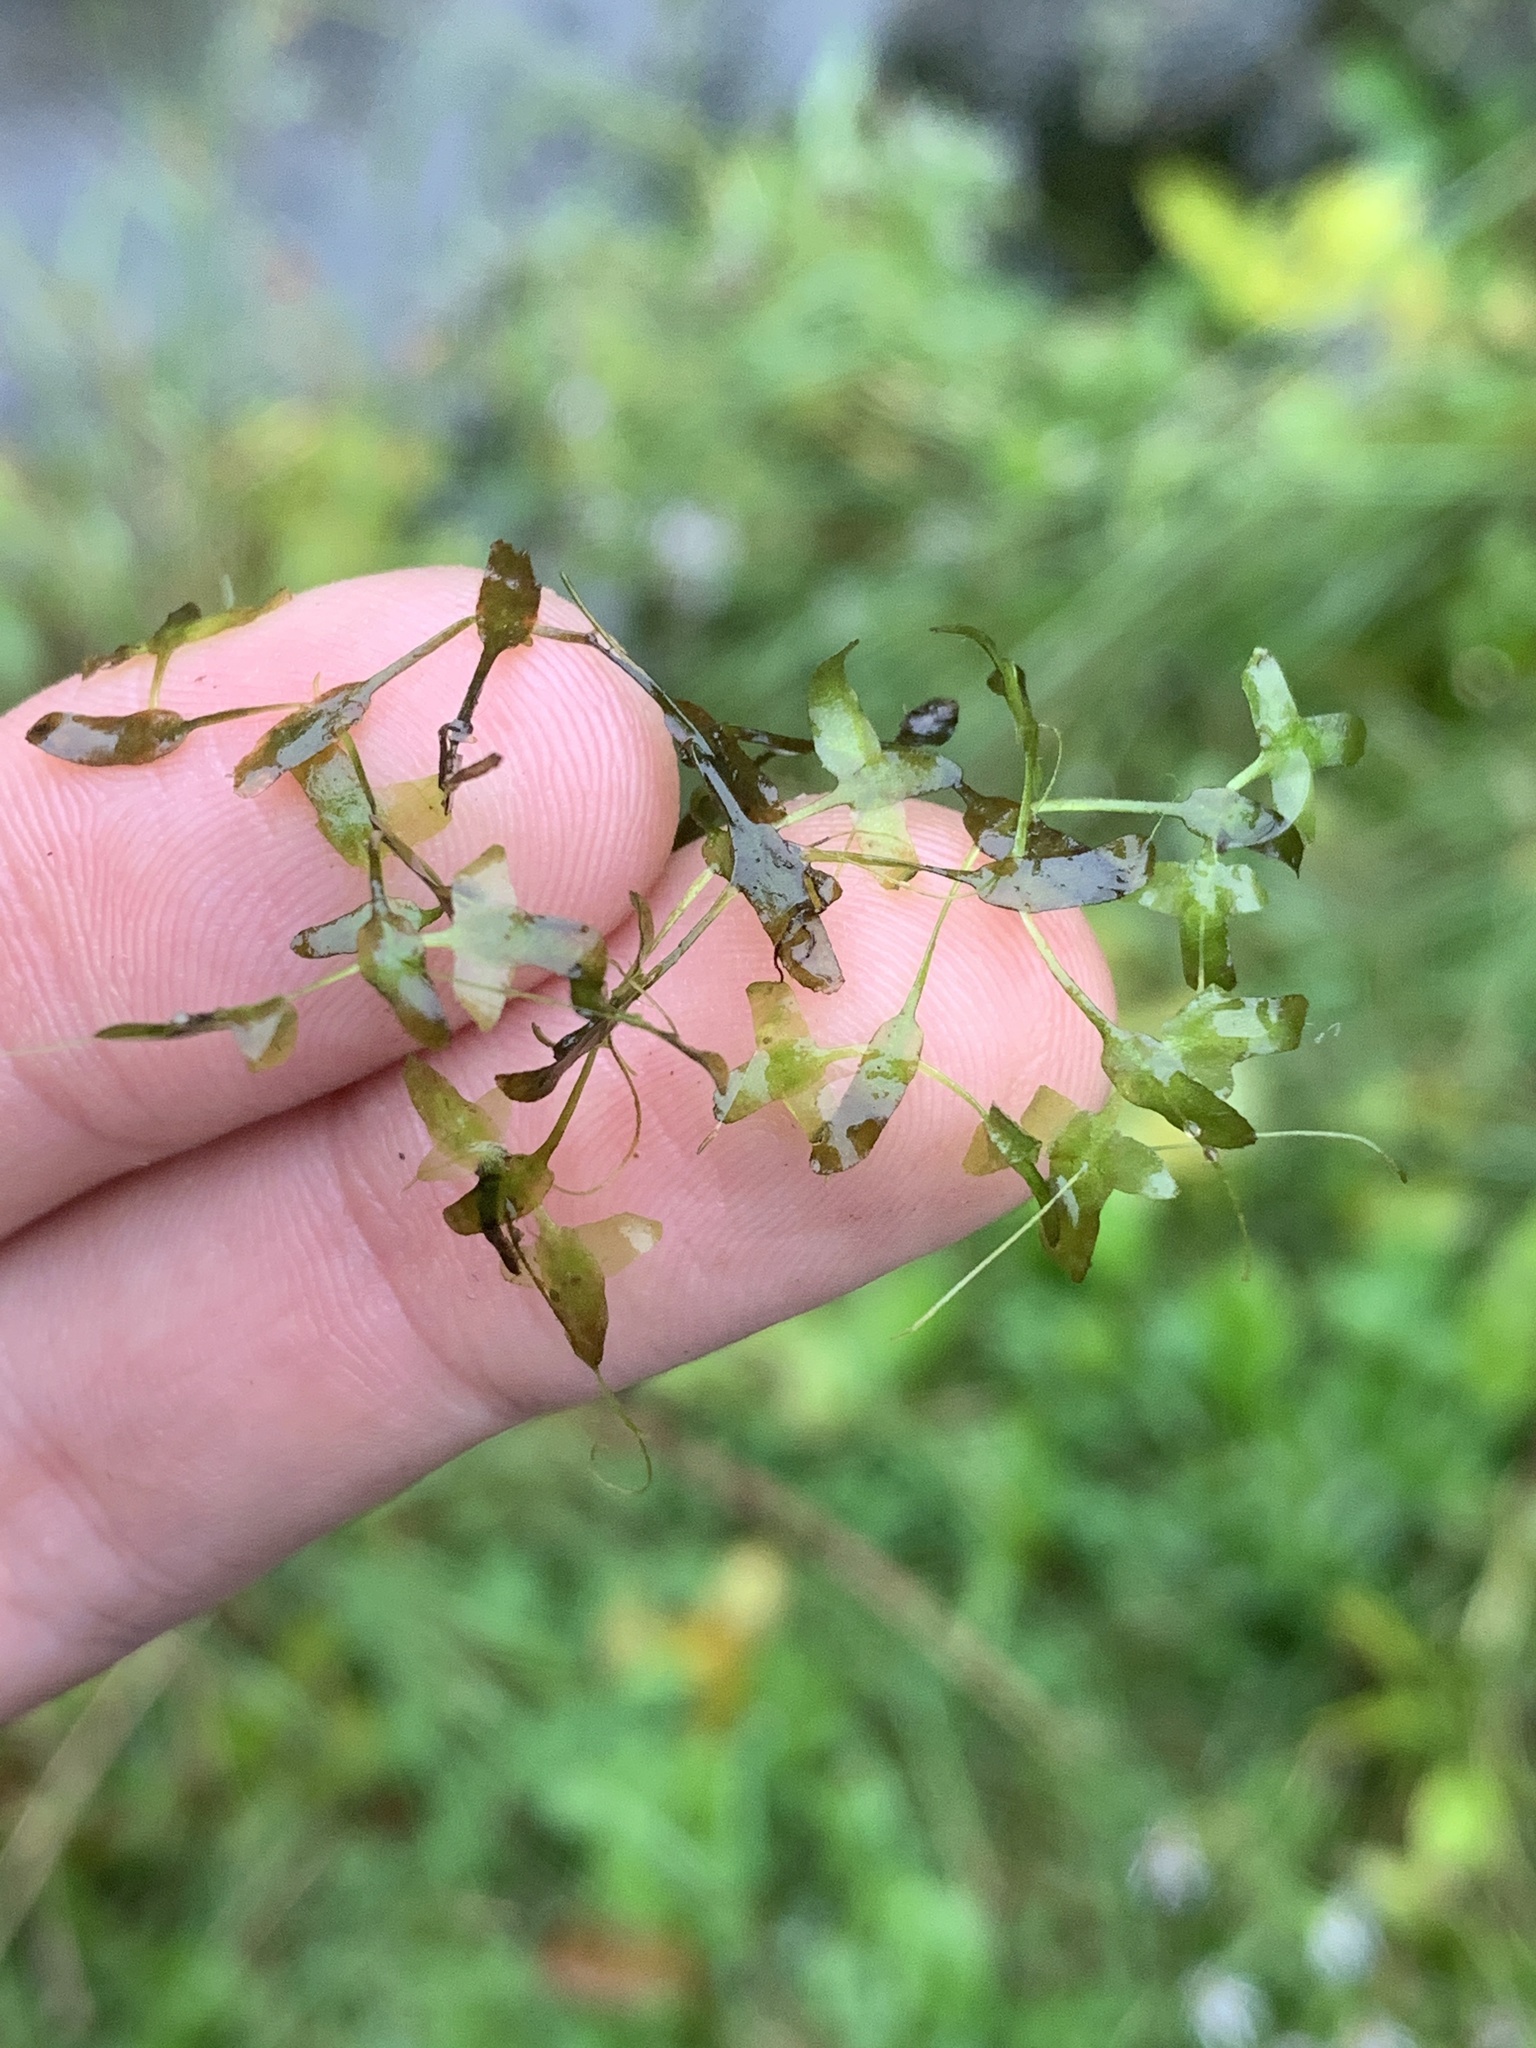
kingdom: Plantae
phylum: Tracheophyta
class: Liliopsida
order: Alismatales
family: Araceae
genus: Lemna
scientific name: Lemna trisulca
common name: Ivy-leaved duckweed
